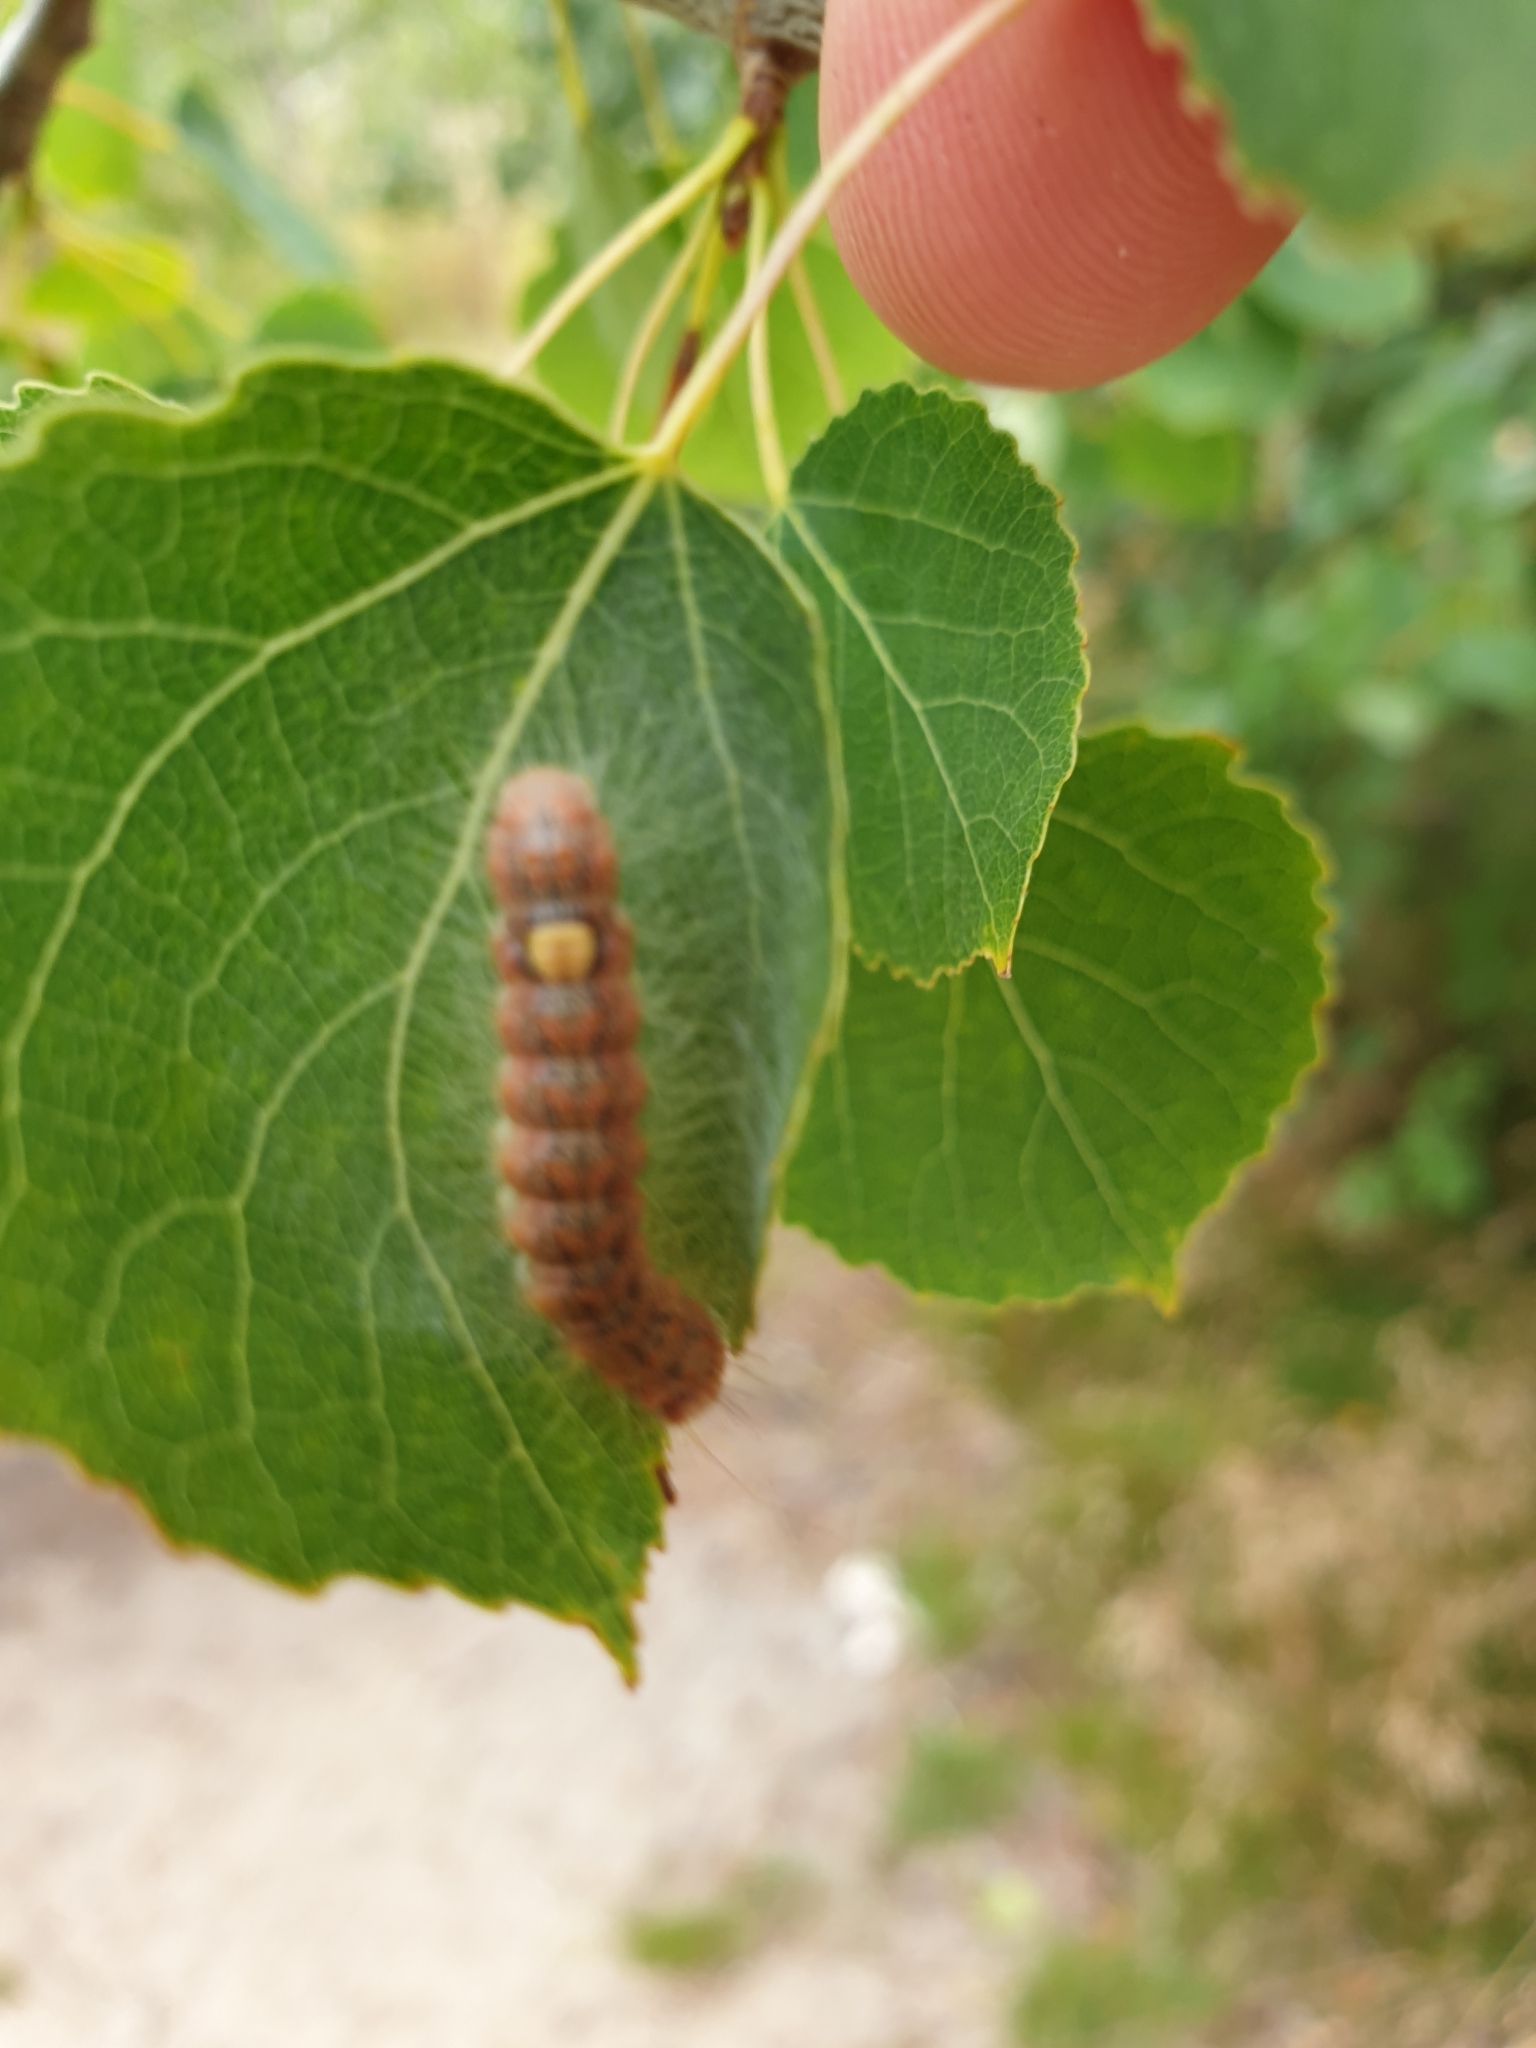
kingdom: Animalia
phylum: Arthropoda
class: Insecta
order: Lepidoptera
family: Noctuidae
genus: Acronicta
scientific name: Acronicta megacephala
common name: Poplar grey
